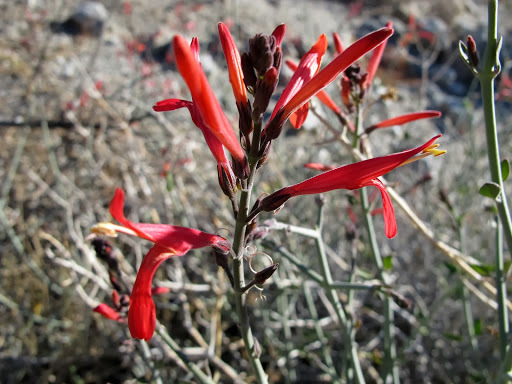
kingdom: Plantae
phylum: Tracheophyta
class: Magnoliopsida
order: Lamiales
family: Acanthaceae
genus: Justicia
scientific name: Justicia californica
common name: Chuparosa-honeysuckle
